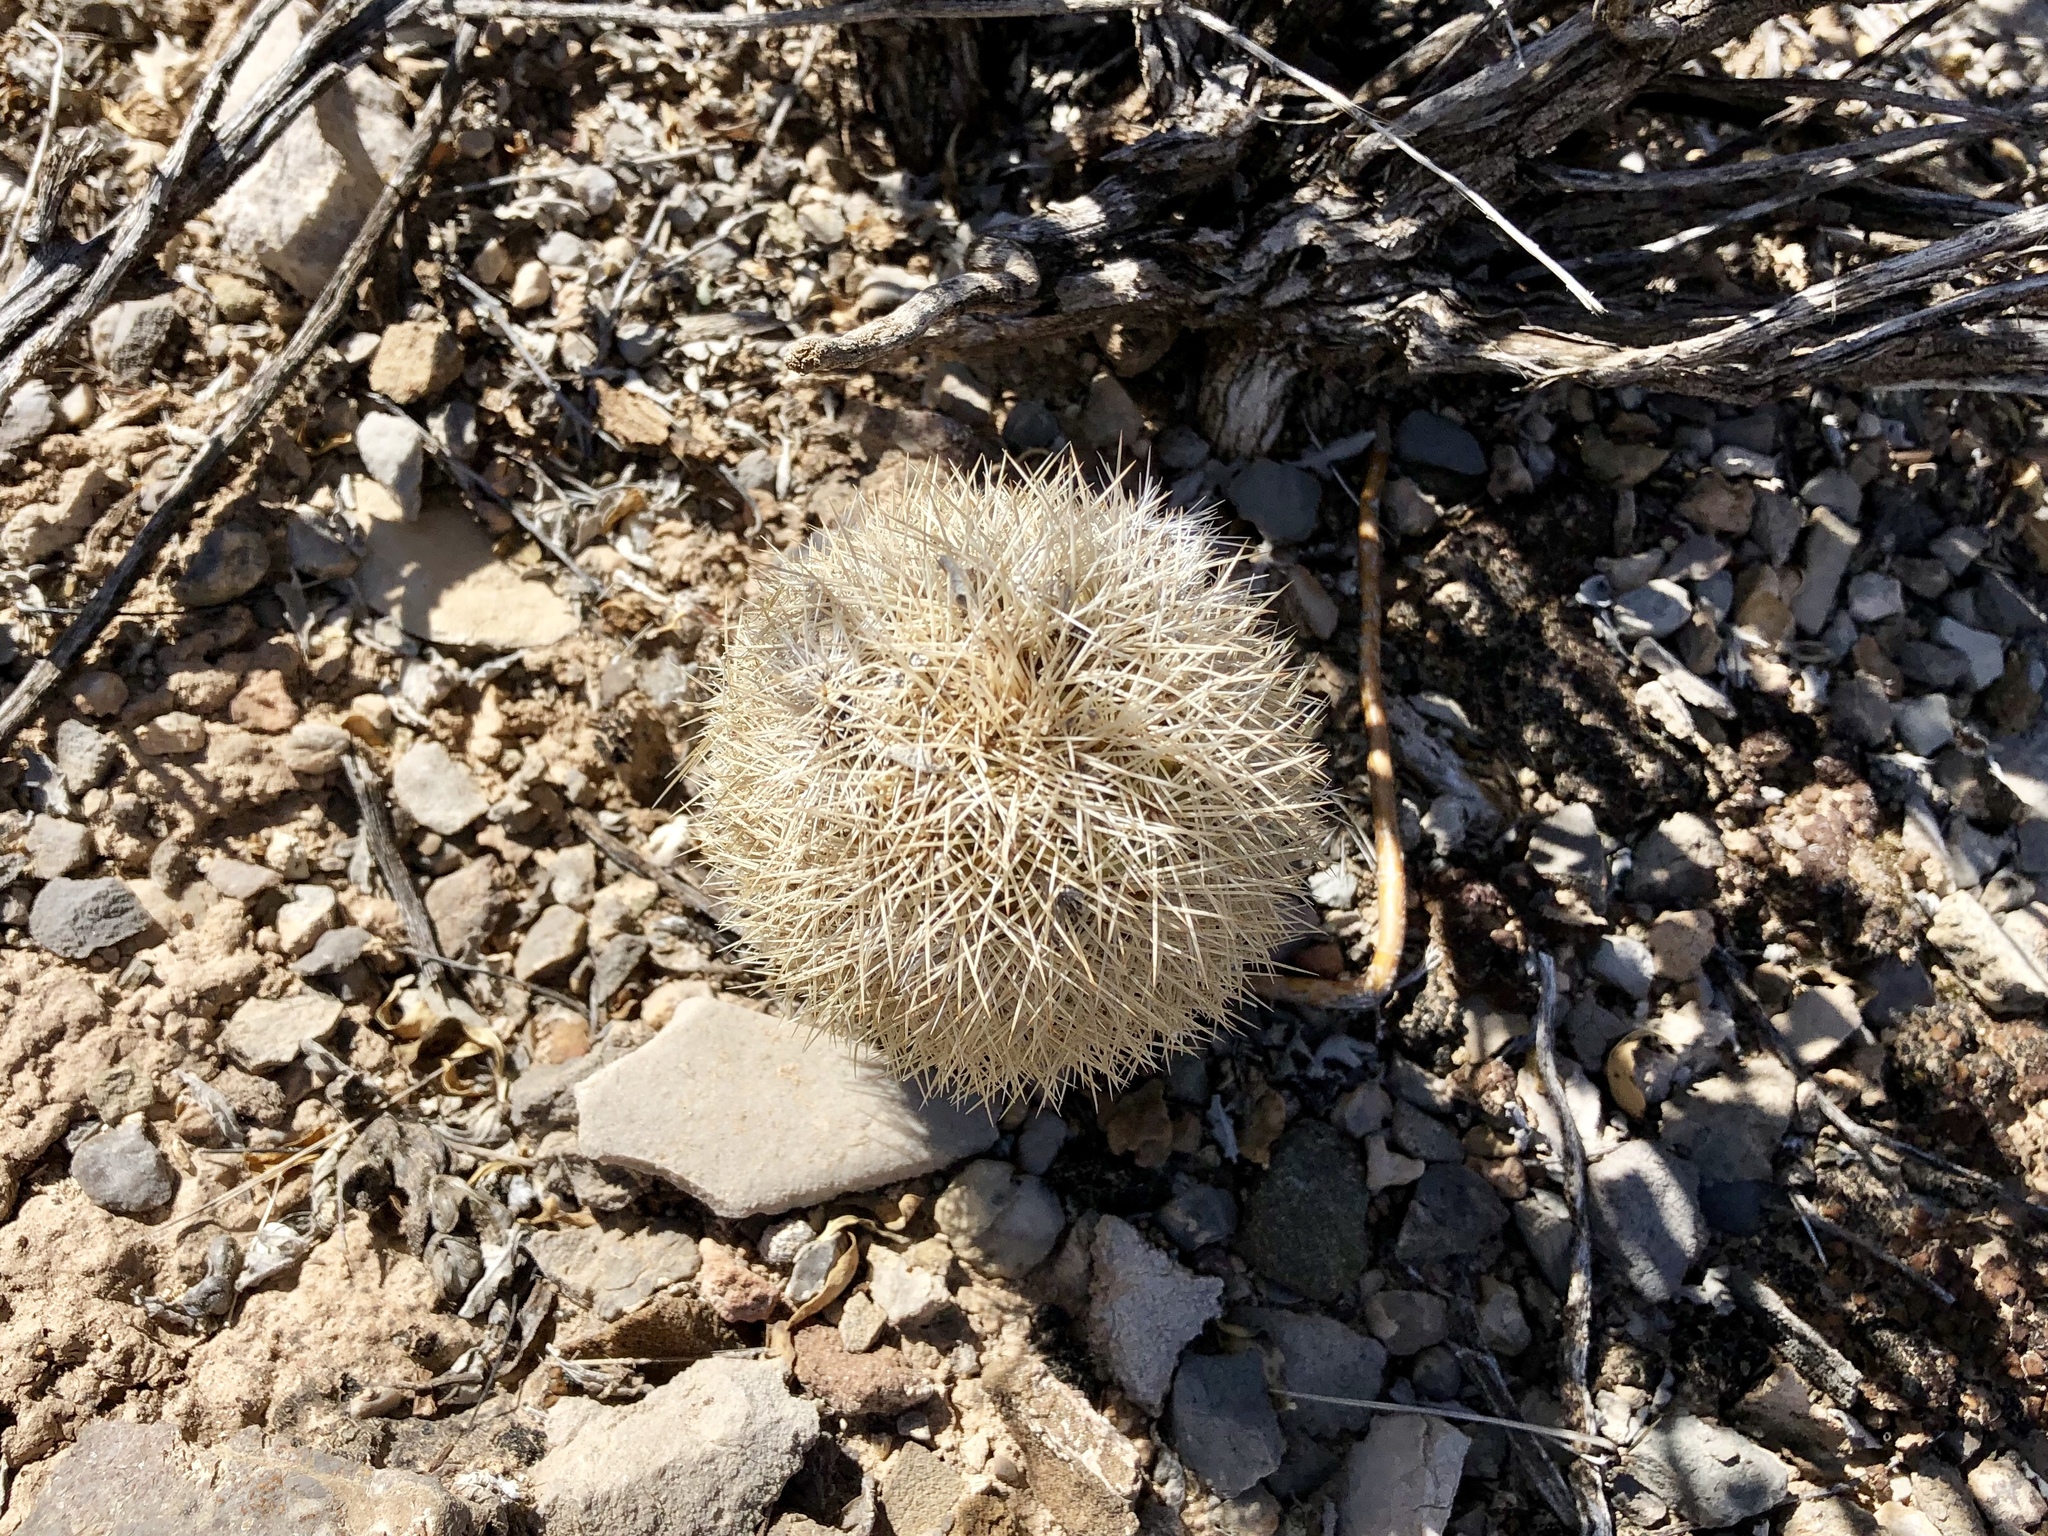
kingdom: Plantae
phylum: Tracheophyta
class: Magnoliopsida
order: Caryophyllales
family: Cactaceae
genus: Echinocereus
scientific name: Echinocereus dasyacanthus
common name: Spiny hedgehog cactus
